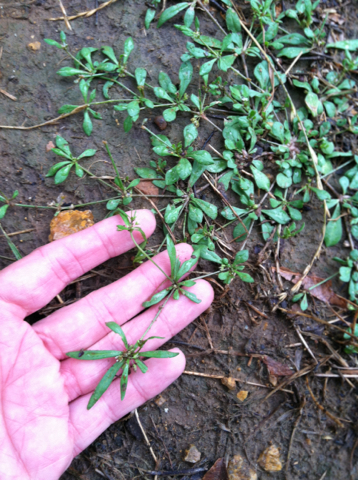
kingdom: Plantae
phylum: Tracheophyta
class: Magnoliopsida
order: Caryophyllales
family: Molluginaceae
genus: Mollugo
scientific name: Mollugo verticillata
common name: Green carpetweed
